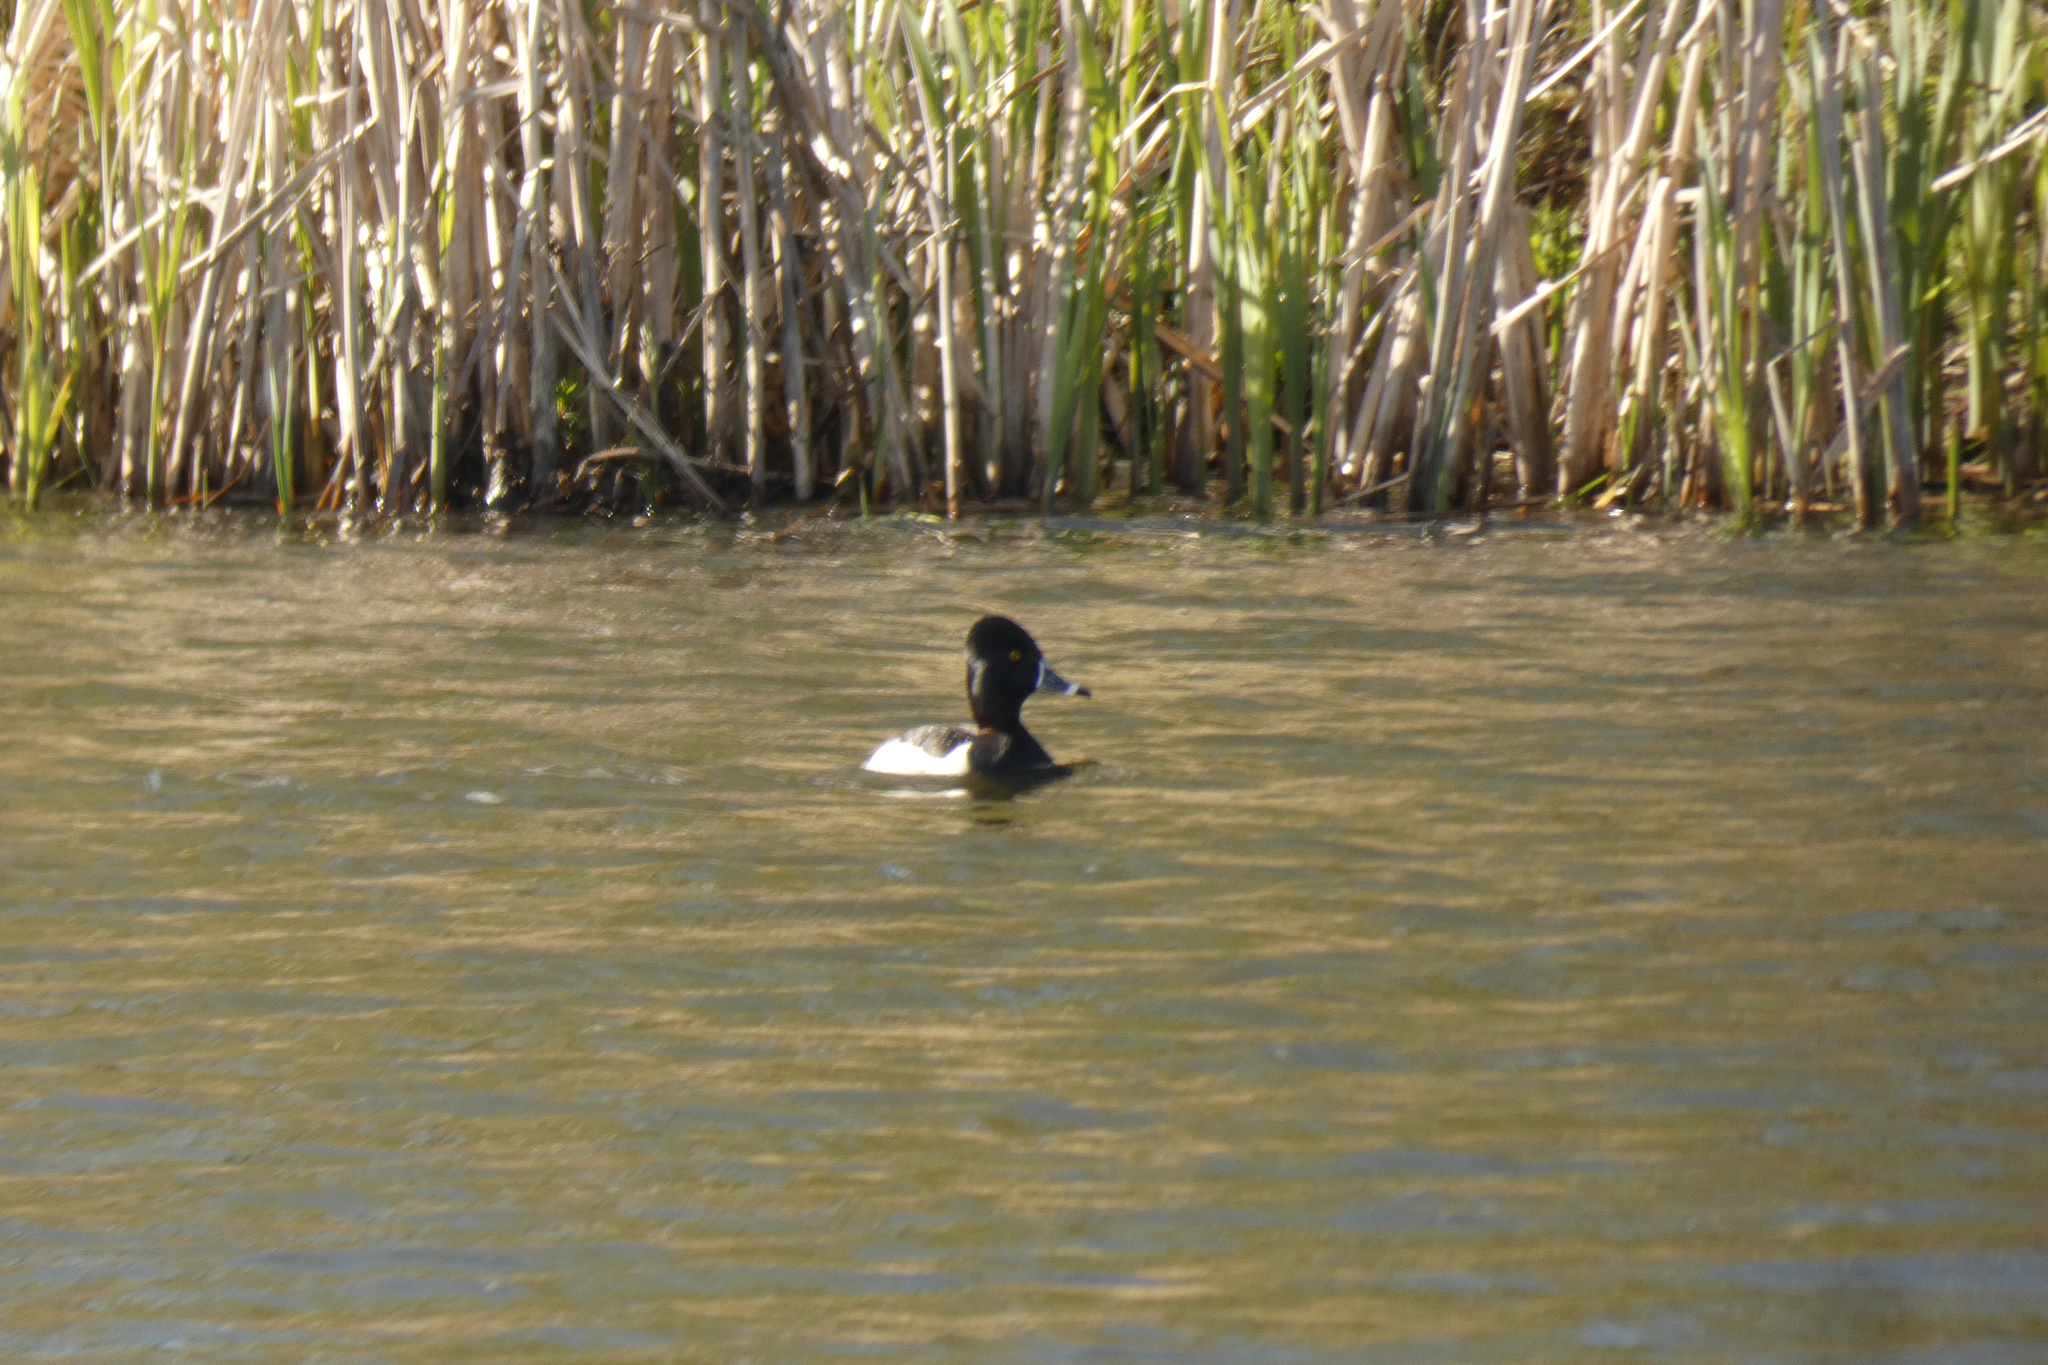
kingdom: Animalia
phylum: Chordata
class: Aves
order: Anseriformes
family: Anatidae
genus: Aythya
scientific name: Aythya collaris
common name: Ring-necked duck
